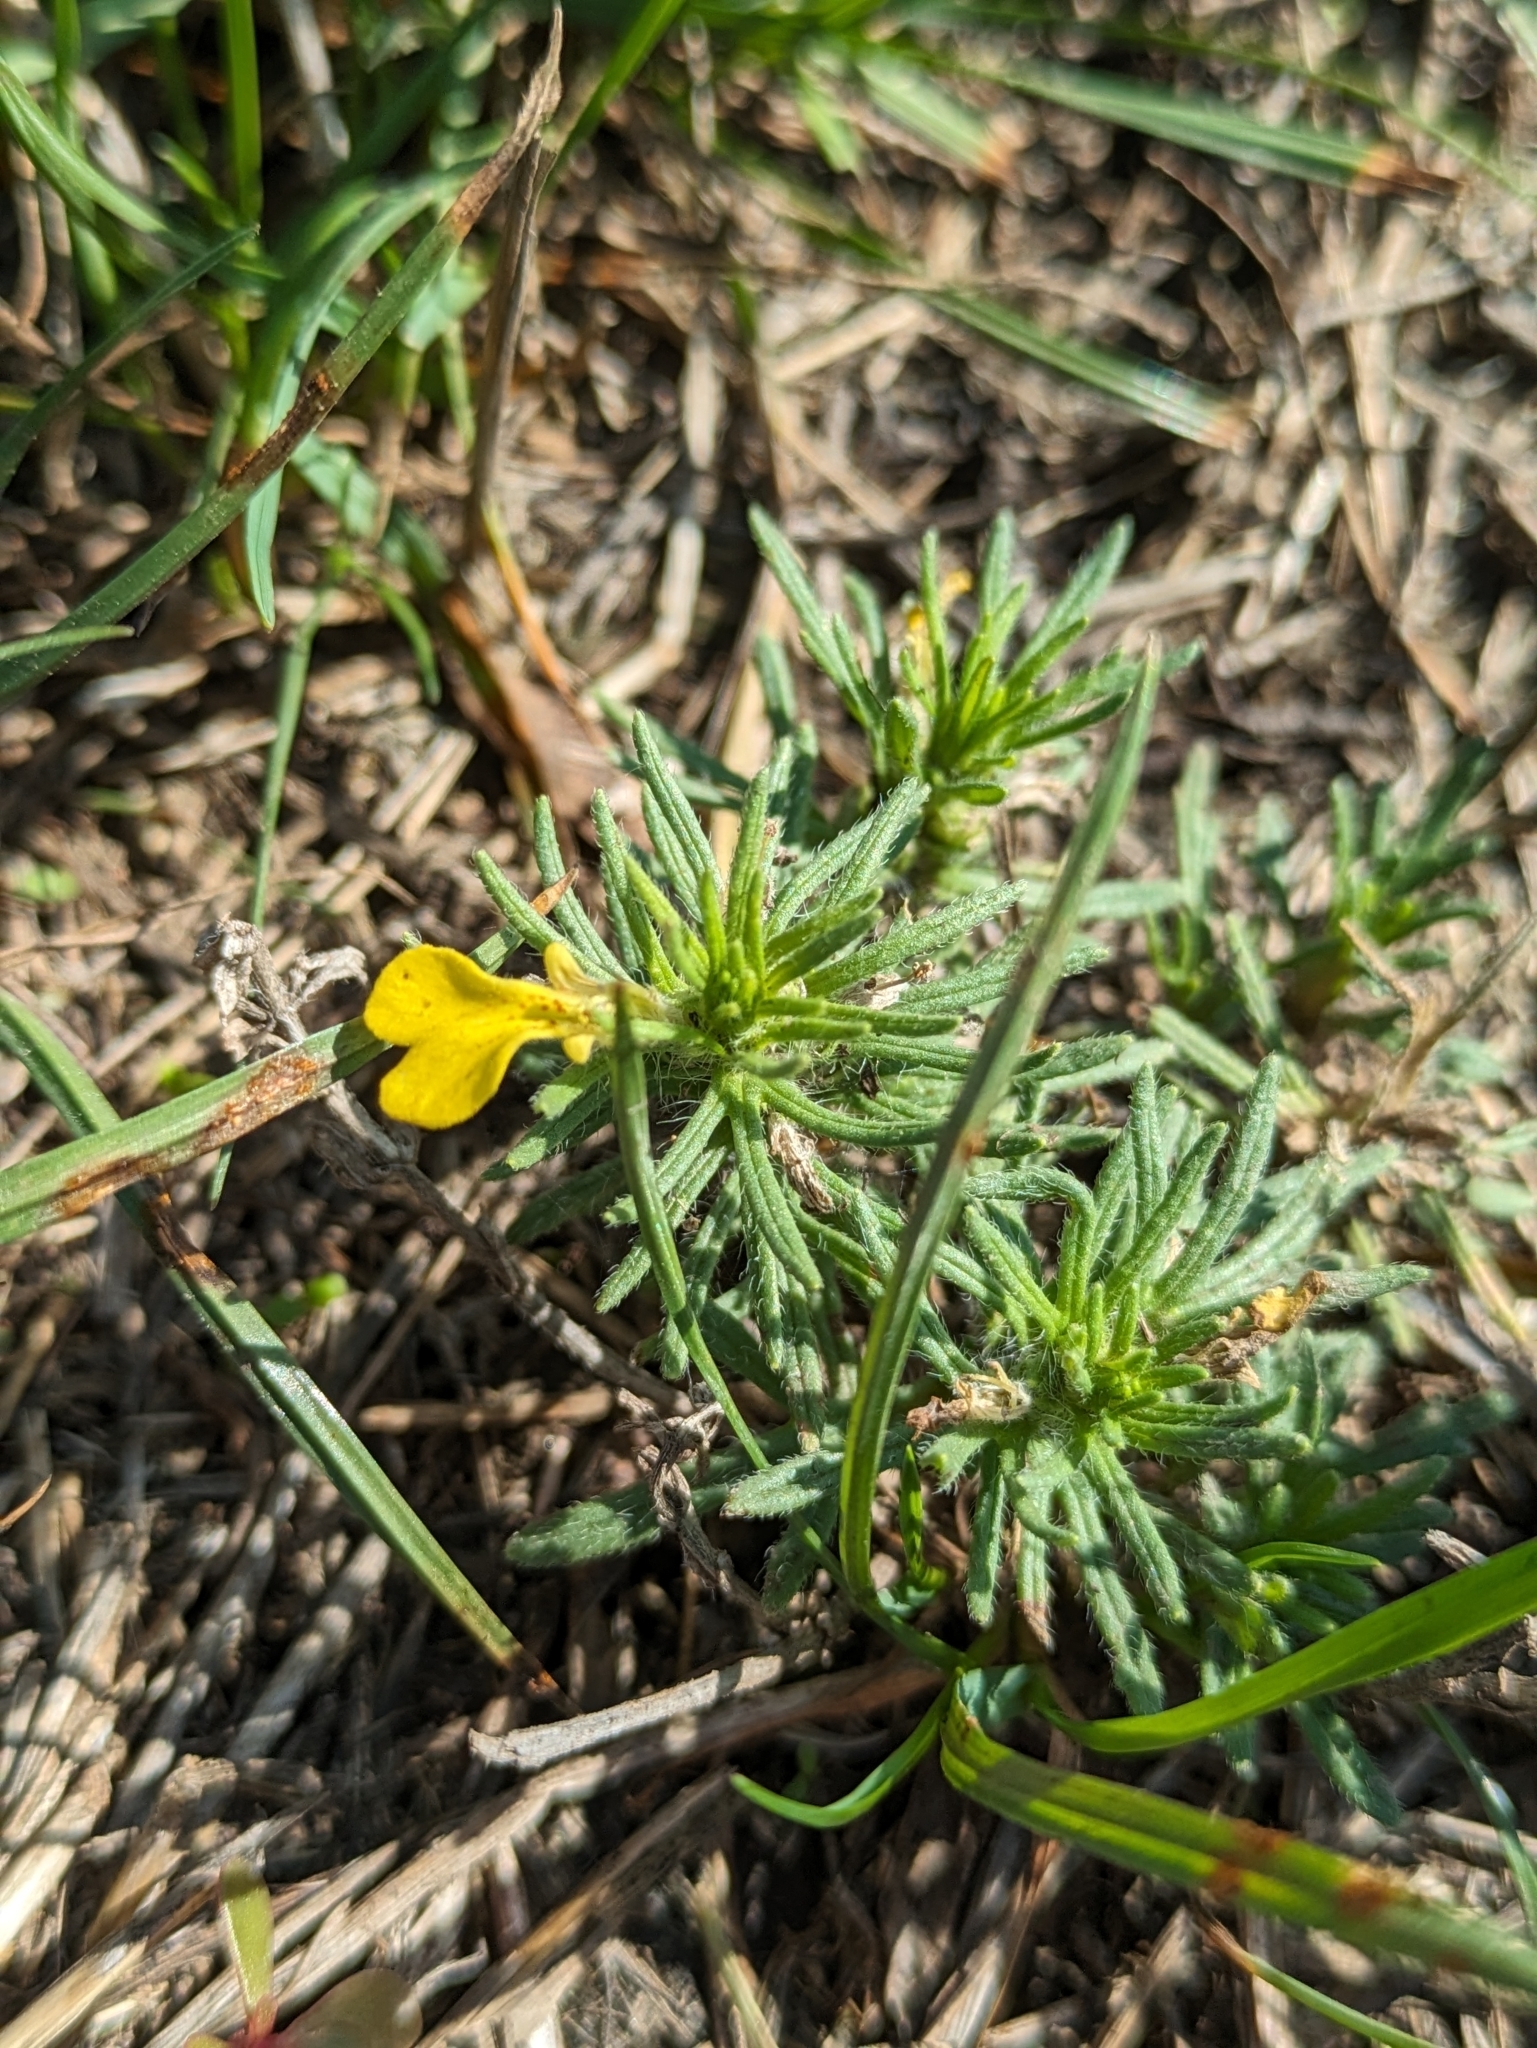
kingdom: Plantae
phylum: Tracheophyta
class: Magnoliopsida
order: Lamiales
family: Lamiaceae
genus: Ajuga
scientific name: Ajuga chamaepitys
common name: Ground-pine
